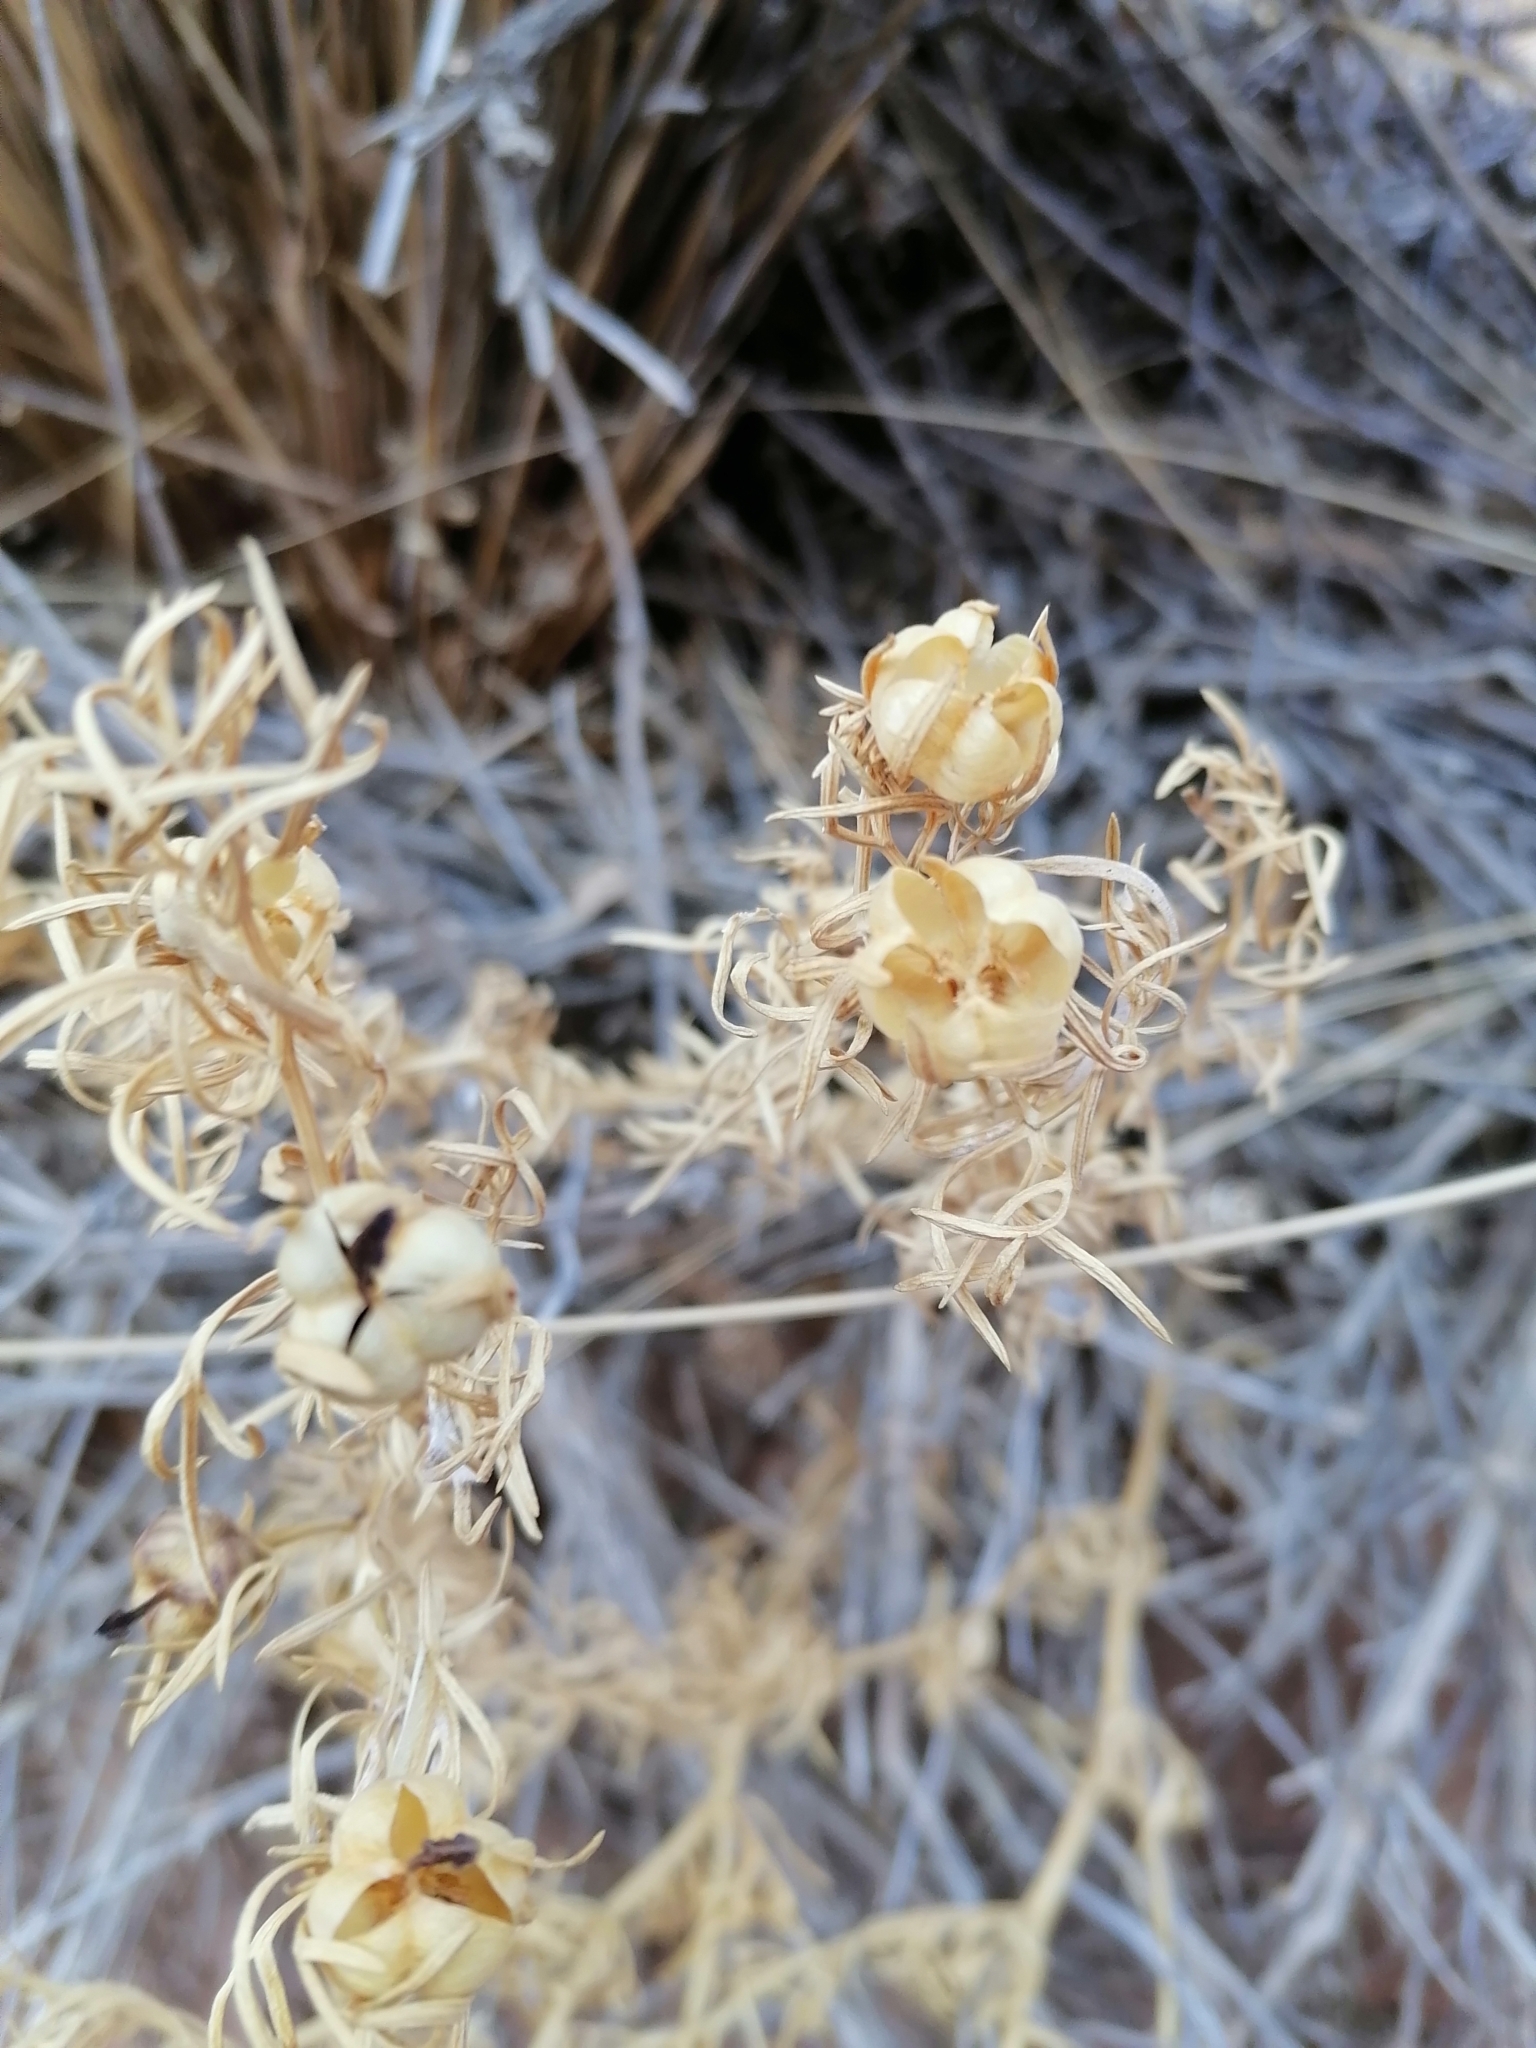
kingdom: Plantae
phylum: Tracheophyta
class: Magnoliopsida
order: Sapindales
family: Tetradiclidaceae
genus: Peganum
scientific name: Peganum harmala
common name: Harmal peganum
